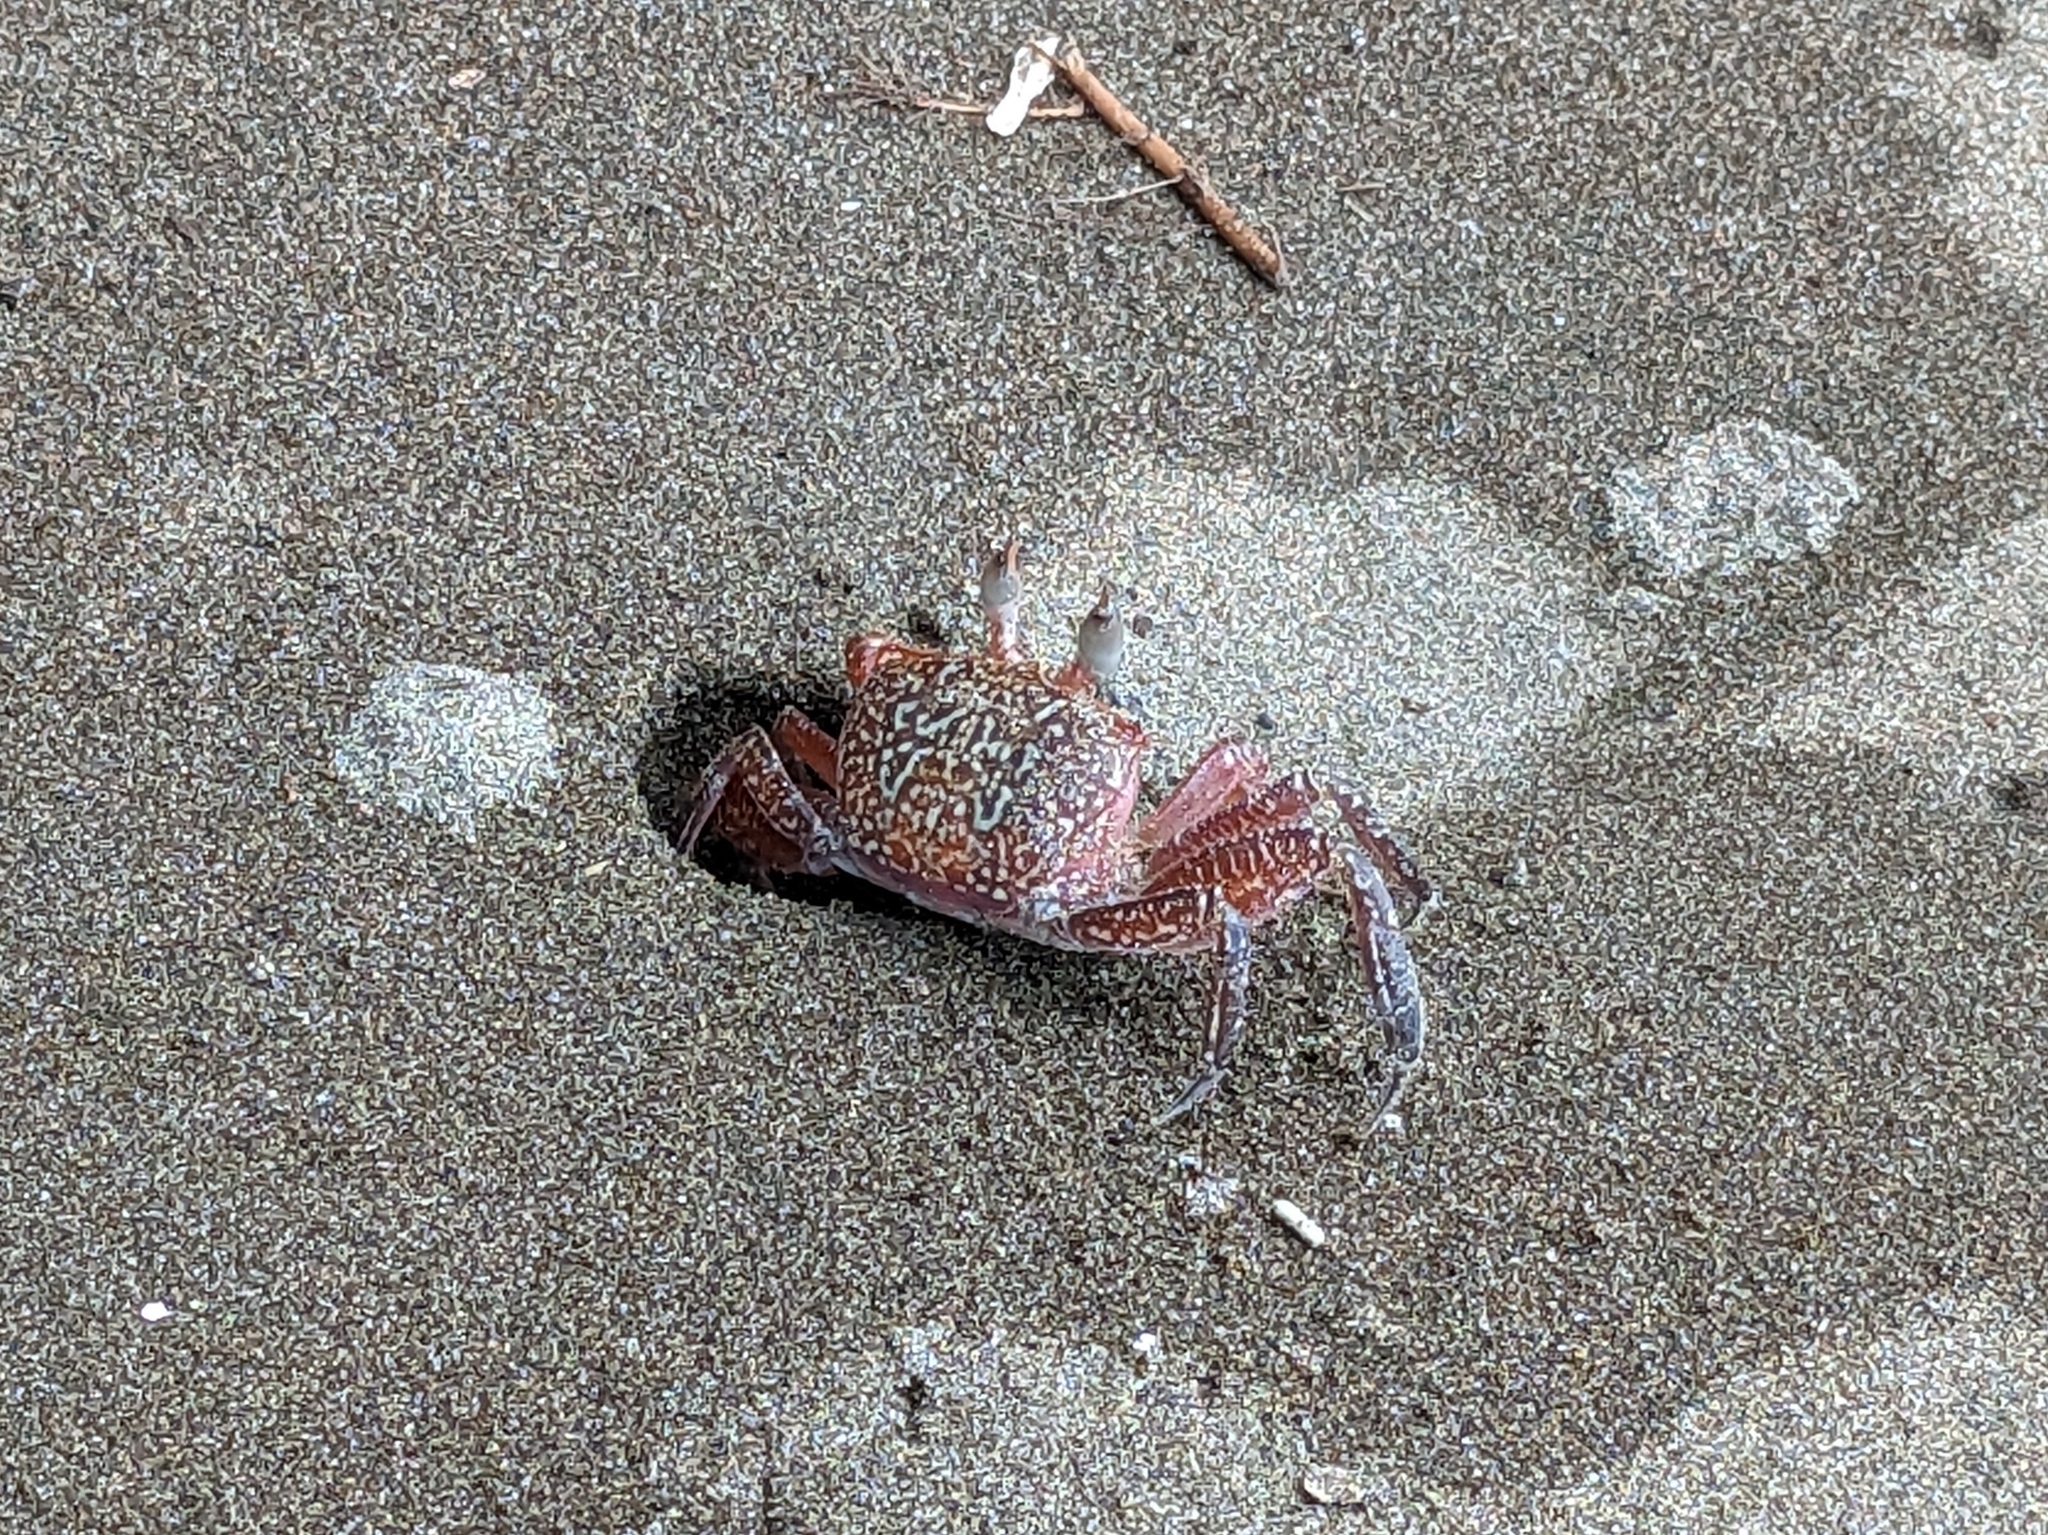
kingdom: Animalia
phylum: Arthropoda
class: Malacostraca
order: Decapoda
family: Ocypodidae
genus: Ocypode
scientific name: Ocypode gaudichaudii
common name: Pacific ghost crab
